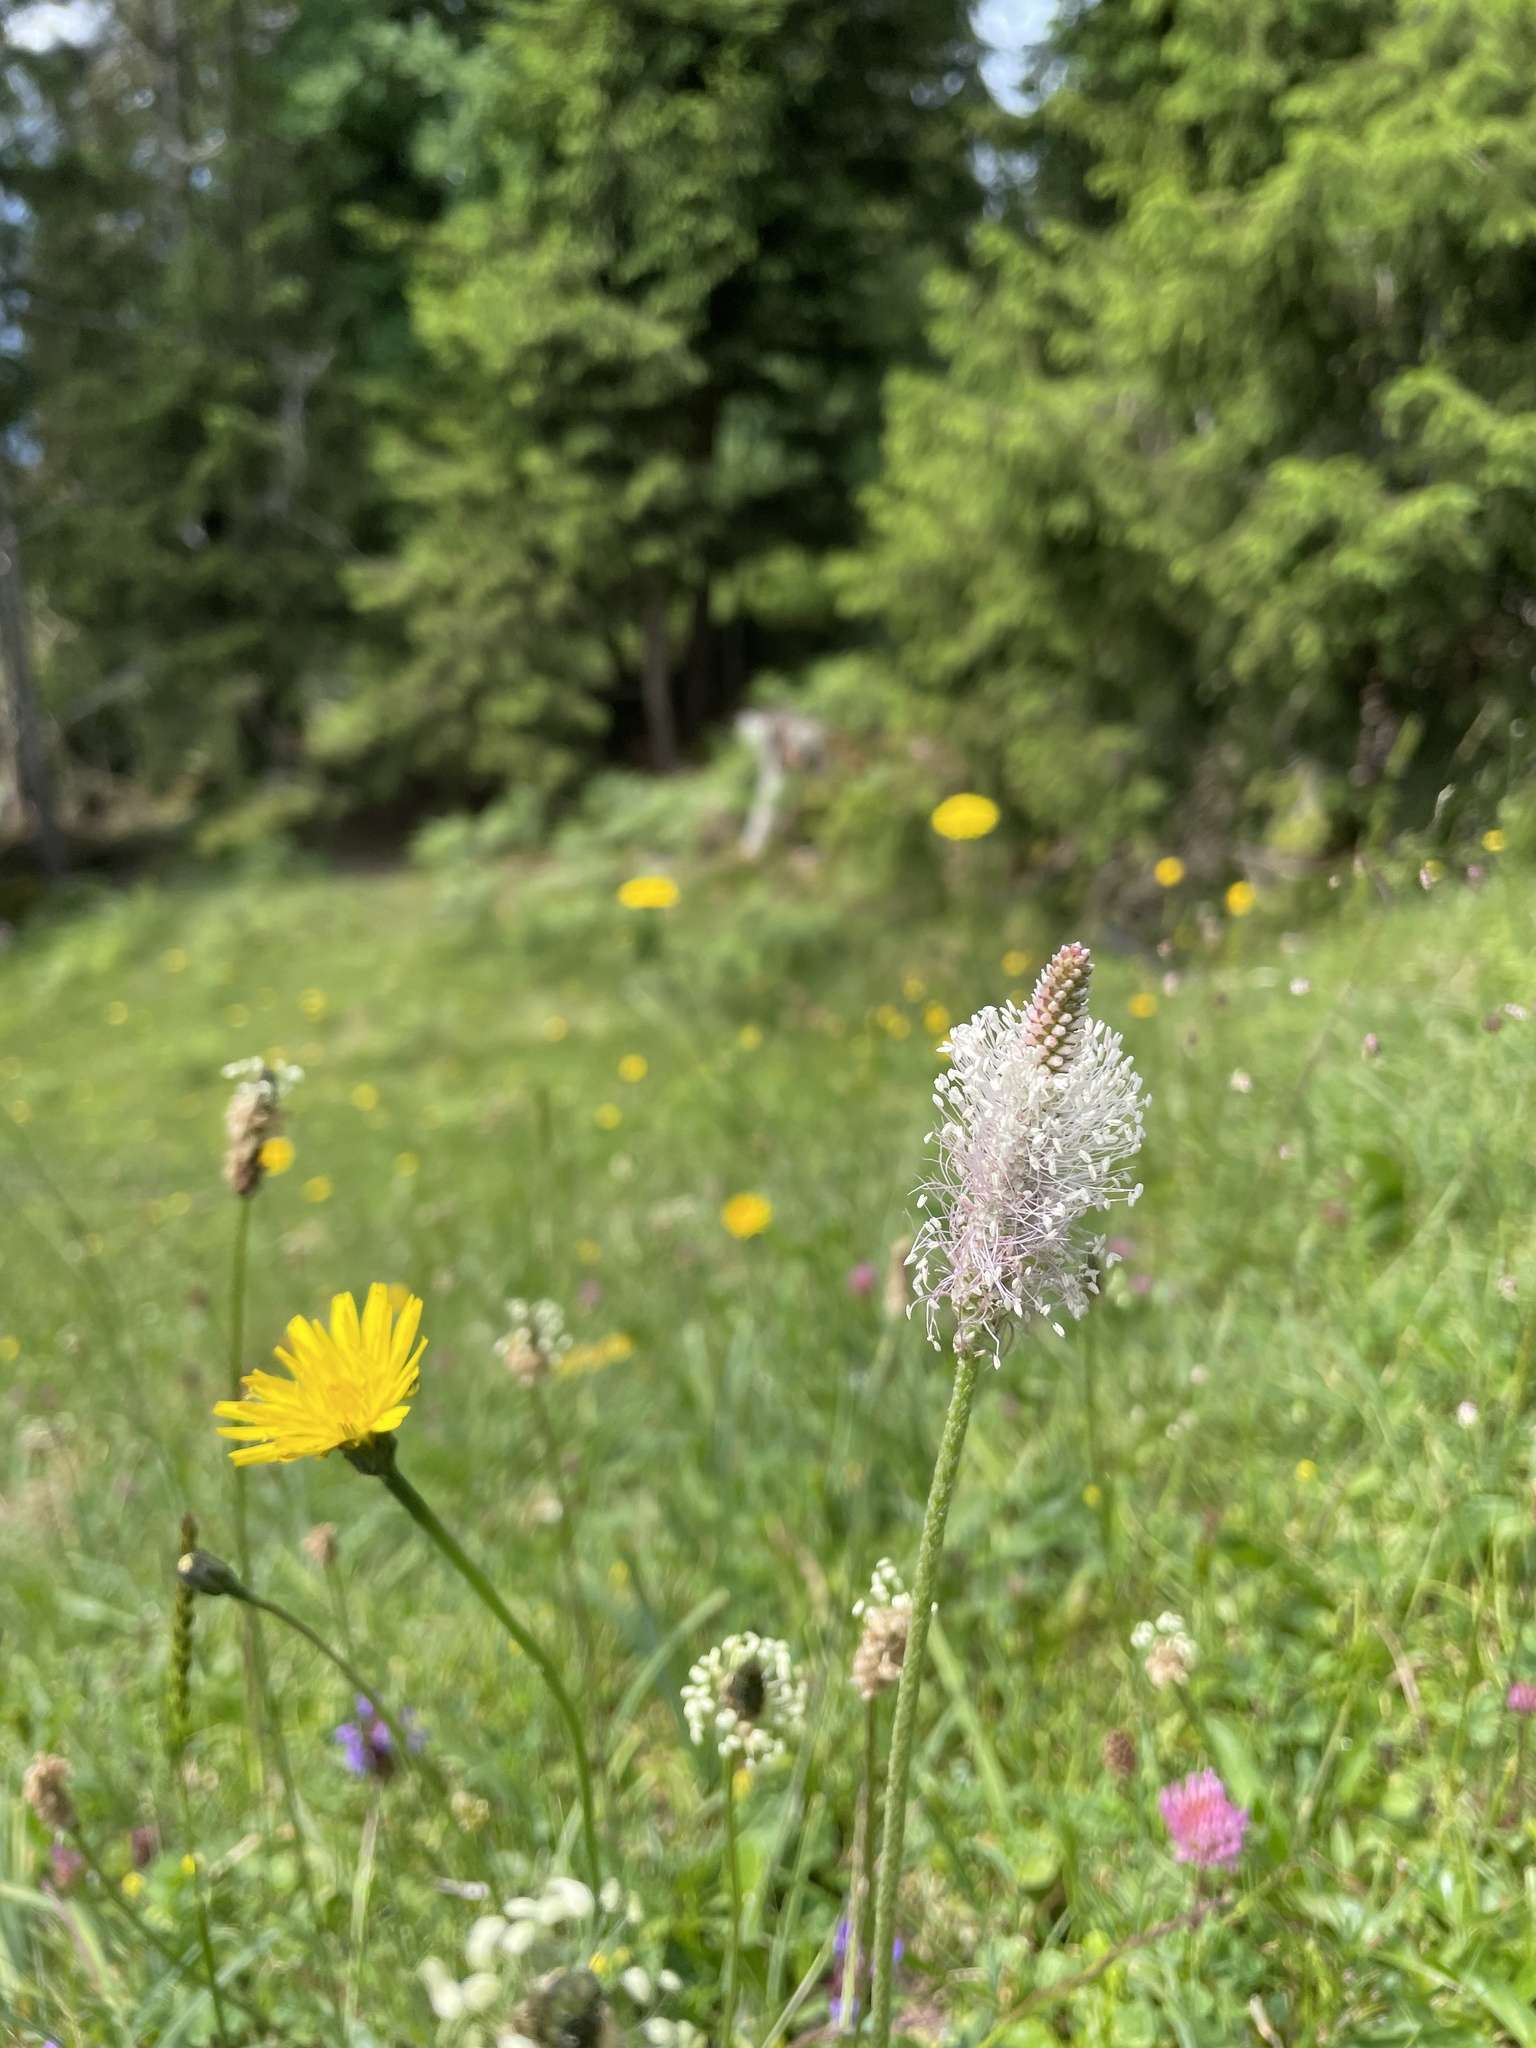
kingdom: Plantae
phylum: Tracheophyta
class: Magnoliopsida
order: Lamiales
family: Plantaginaceae
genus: Plantago
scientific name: Plantago media
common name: Hoary plantain
